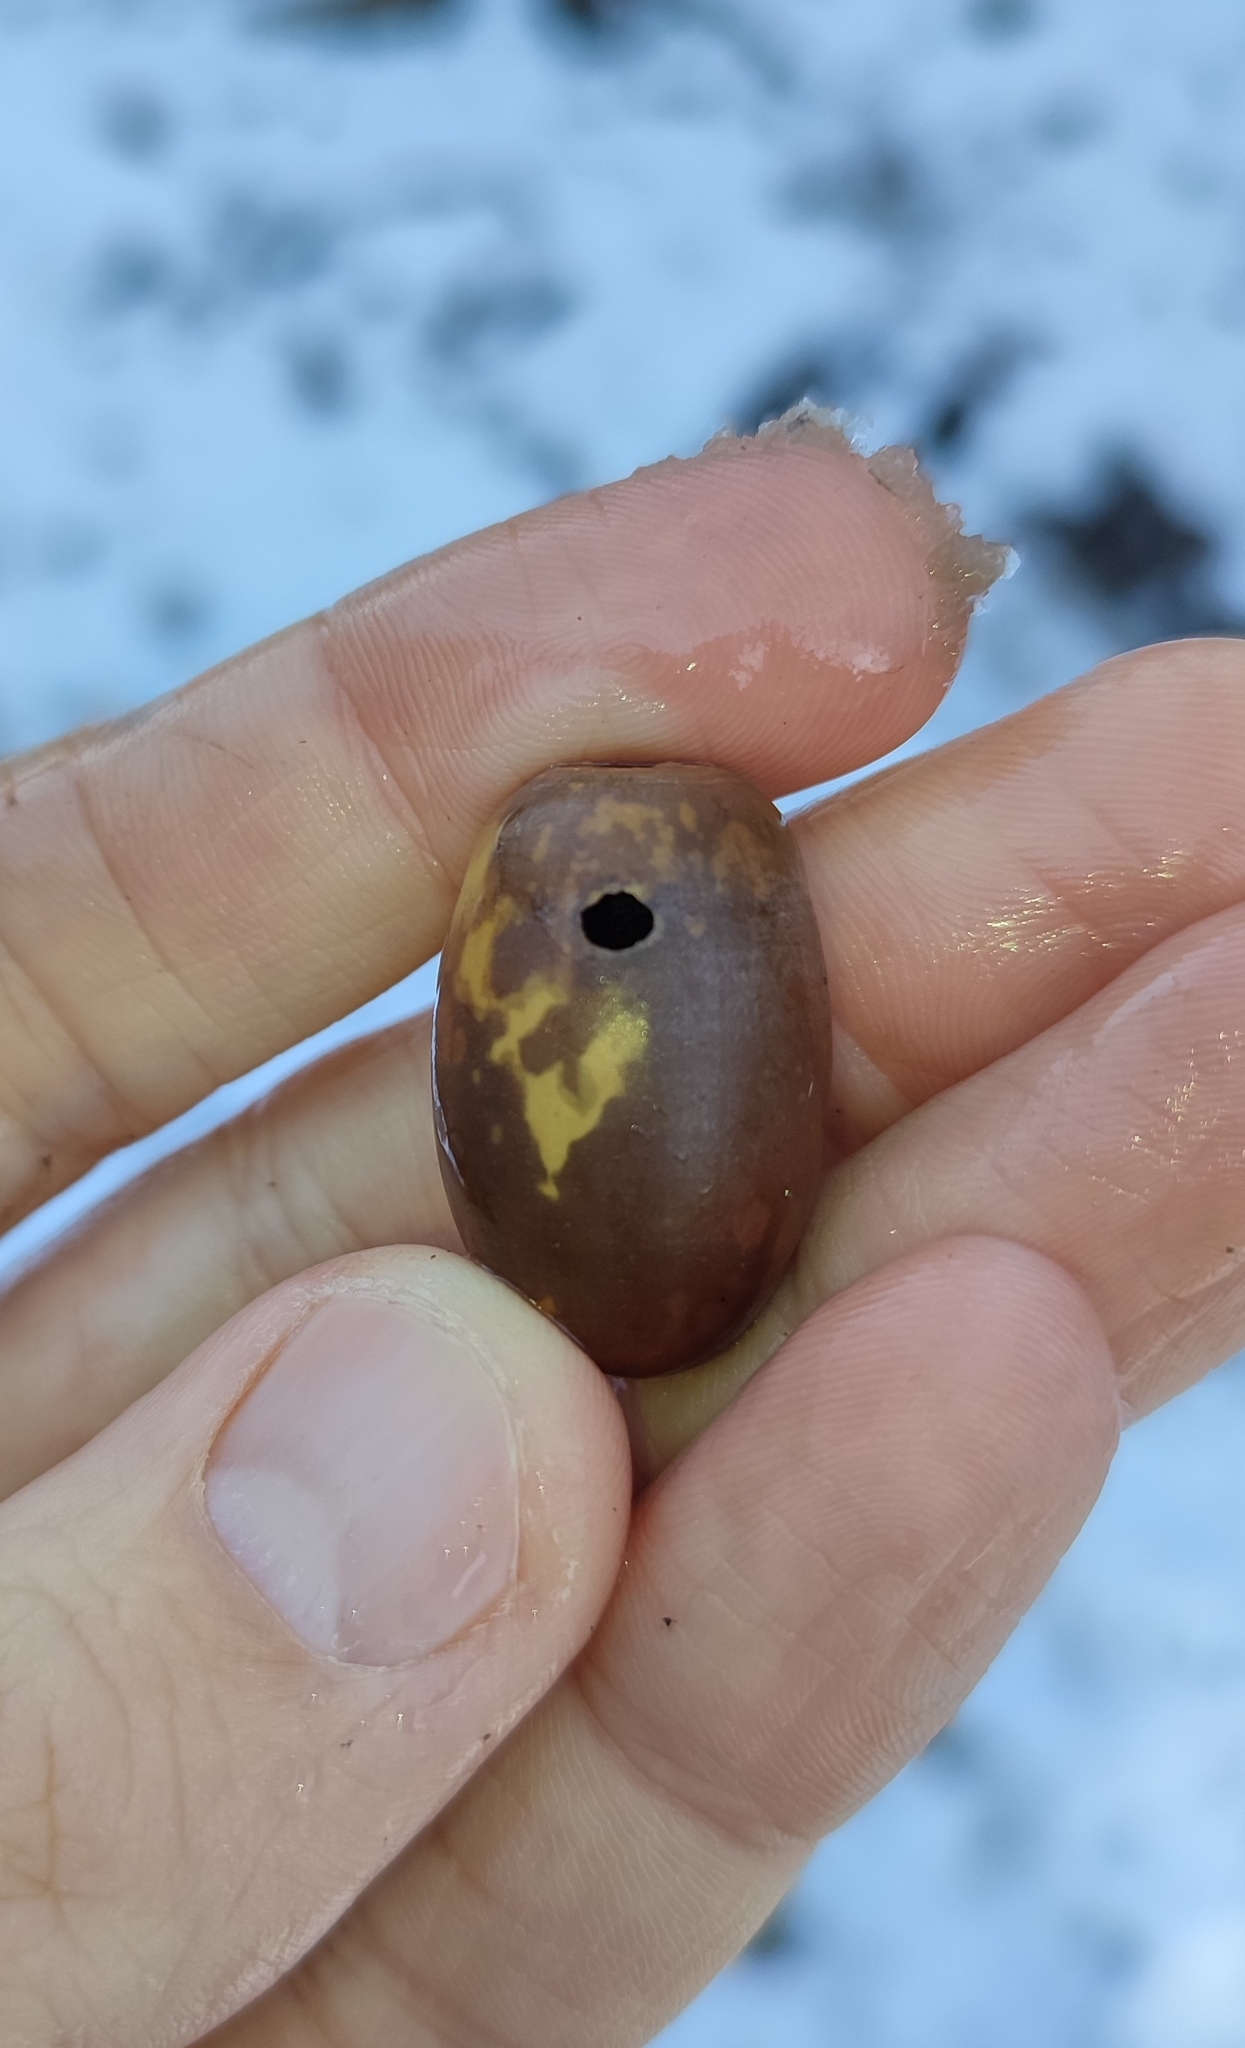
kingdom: Animalia
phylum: Arthropoda
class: Insecta
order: Coleoptera
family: Curculionidae
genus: Curculio
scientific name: Curculio glandium
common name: Acorn weevil
